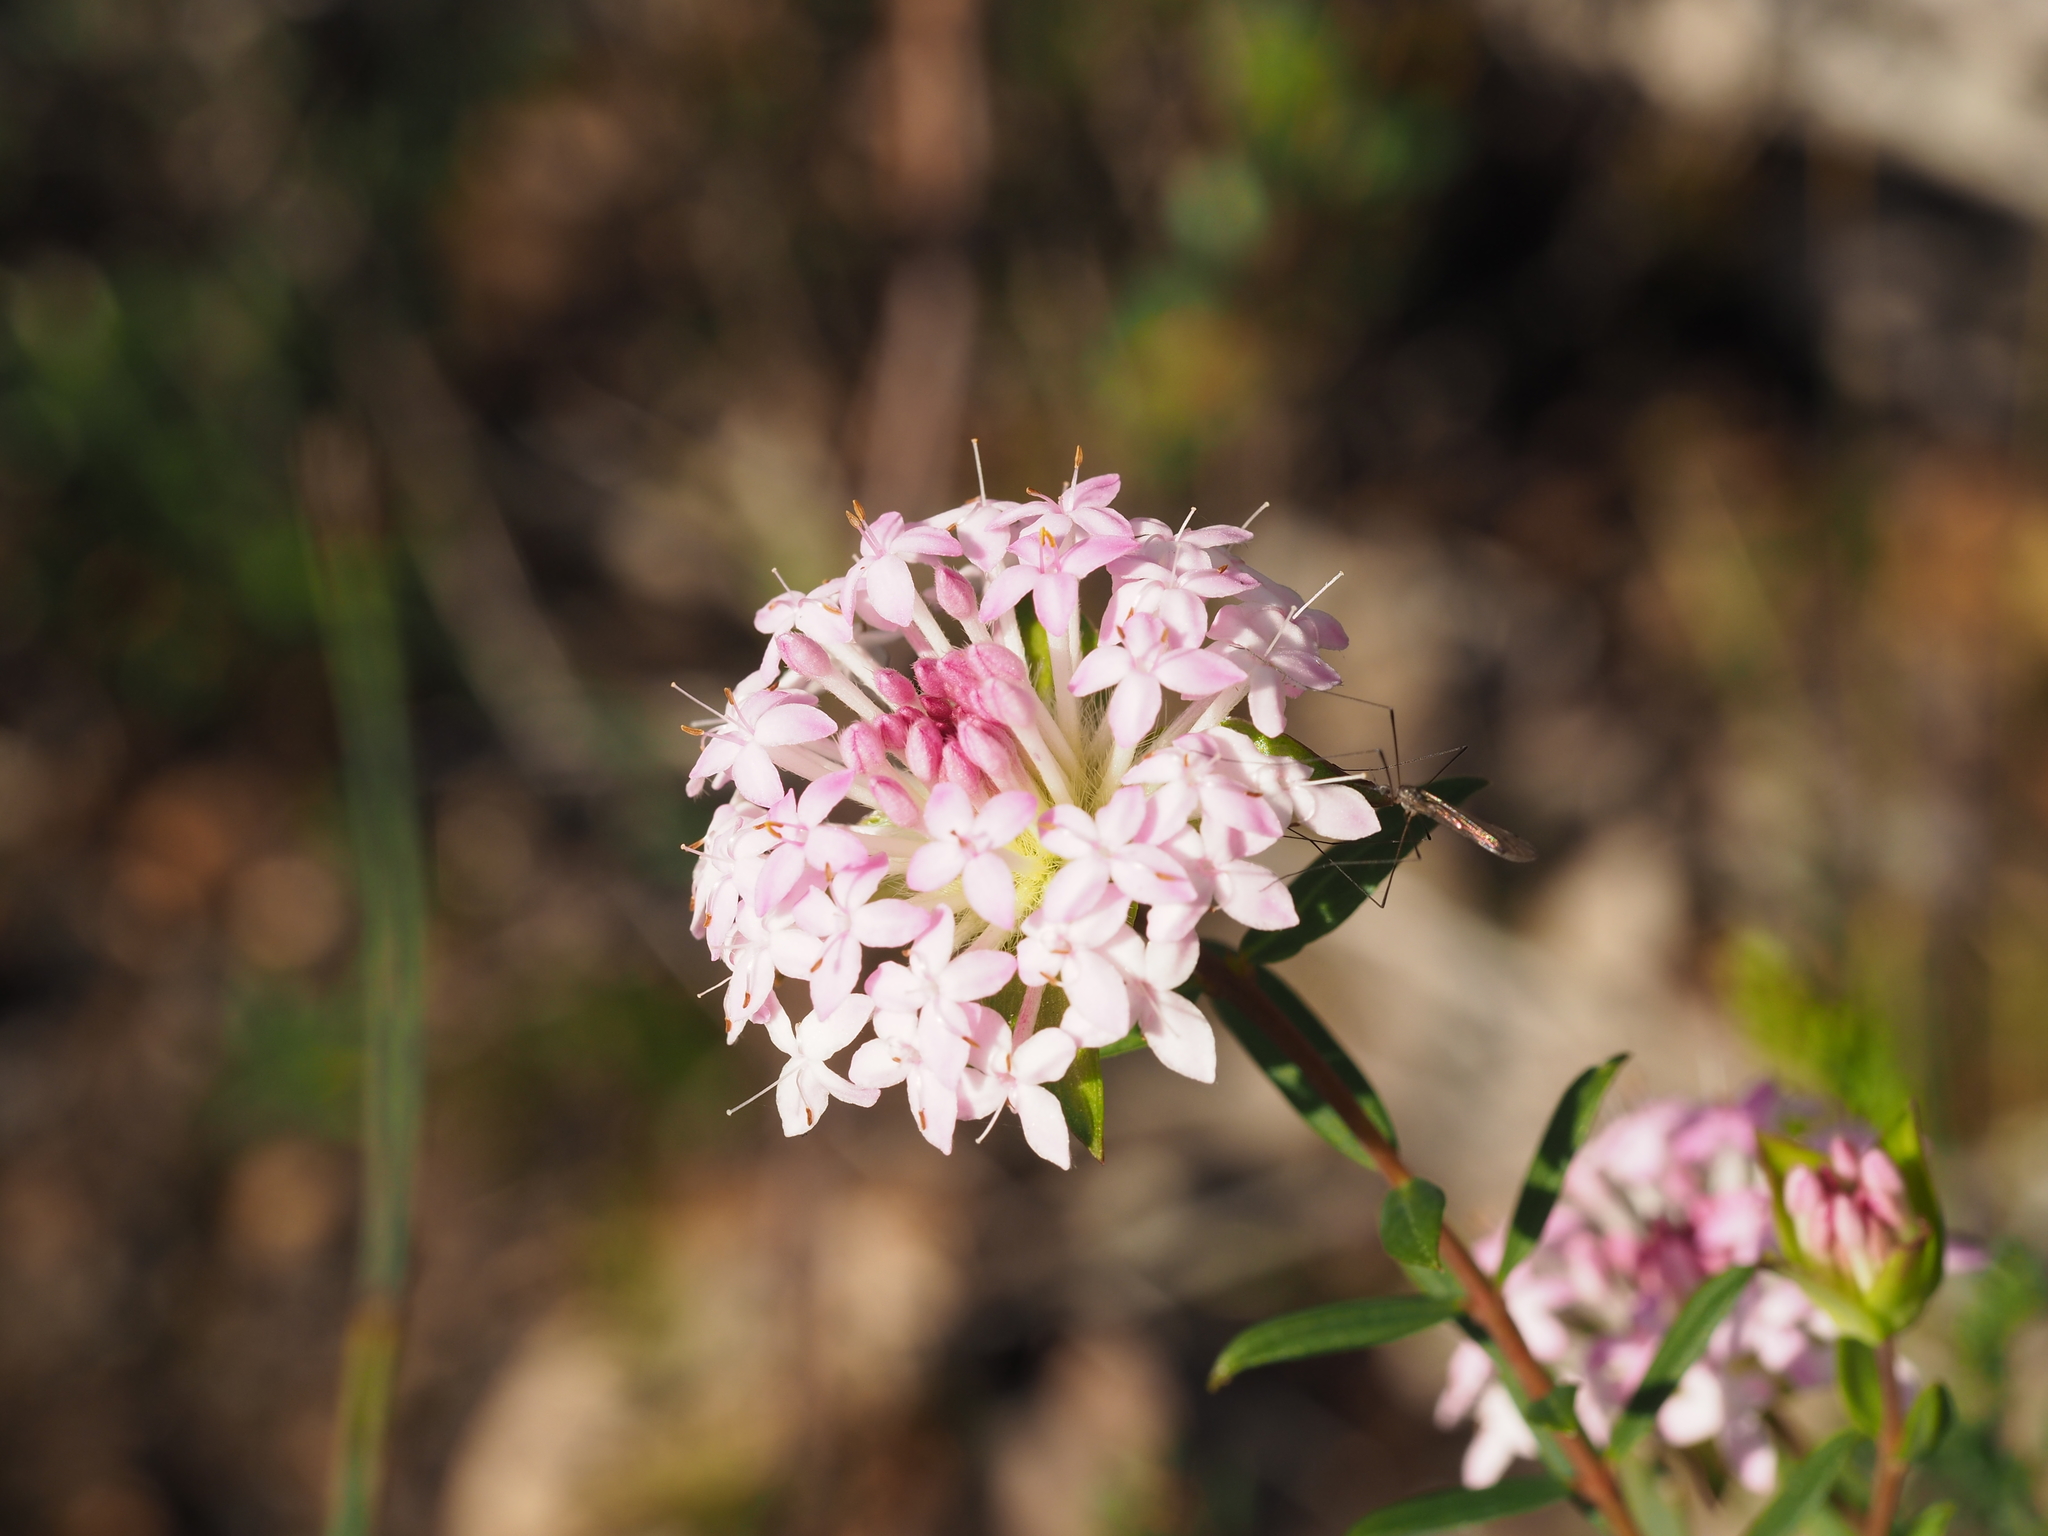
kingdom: Plantae
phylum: Tracheophyta
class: Magnoliopsida
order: Malvales
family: Thymelaeaceae
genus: Pimelea
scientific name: Pimelea rosea
